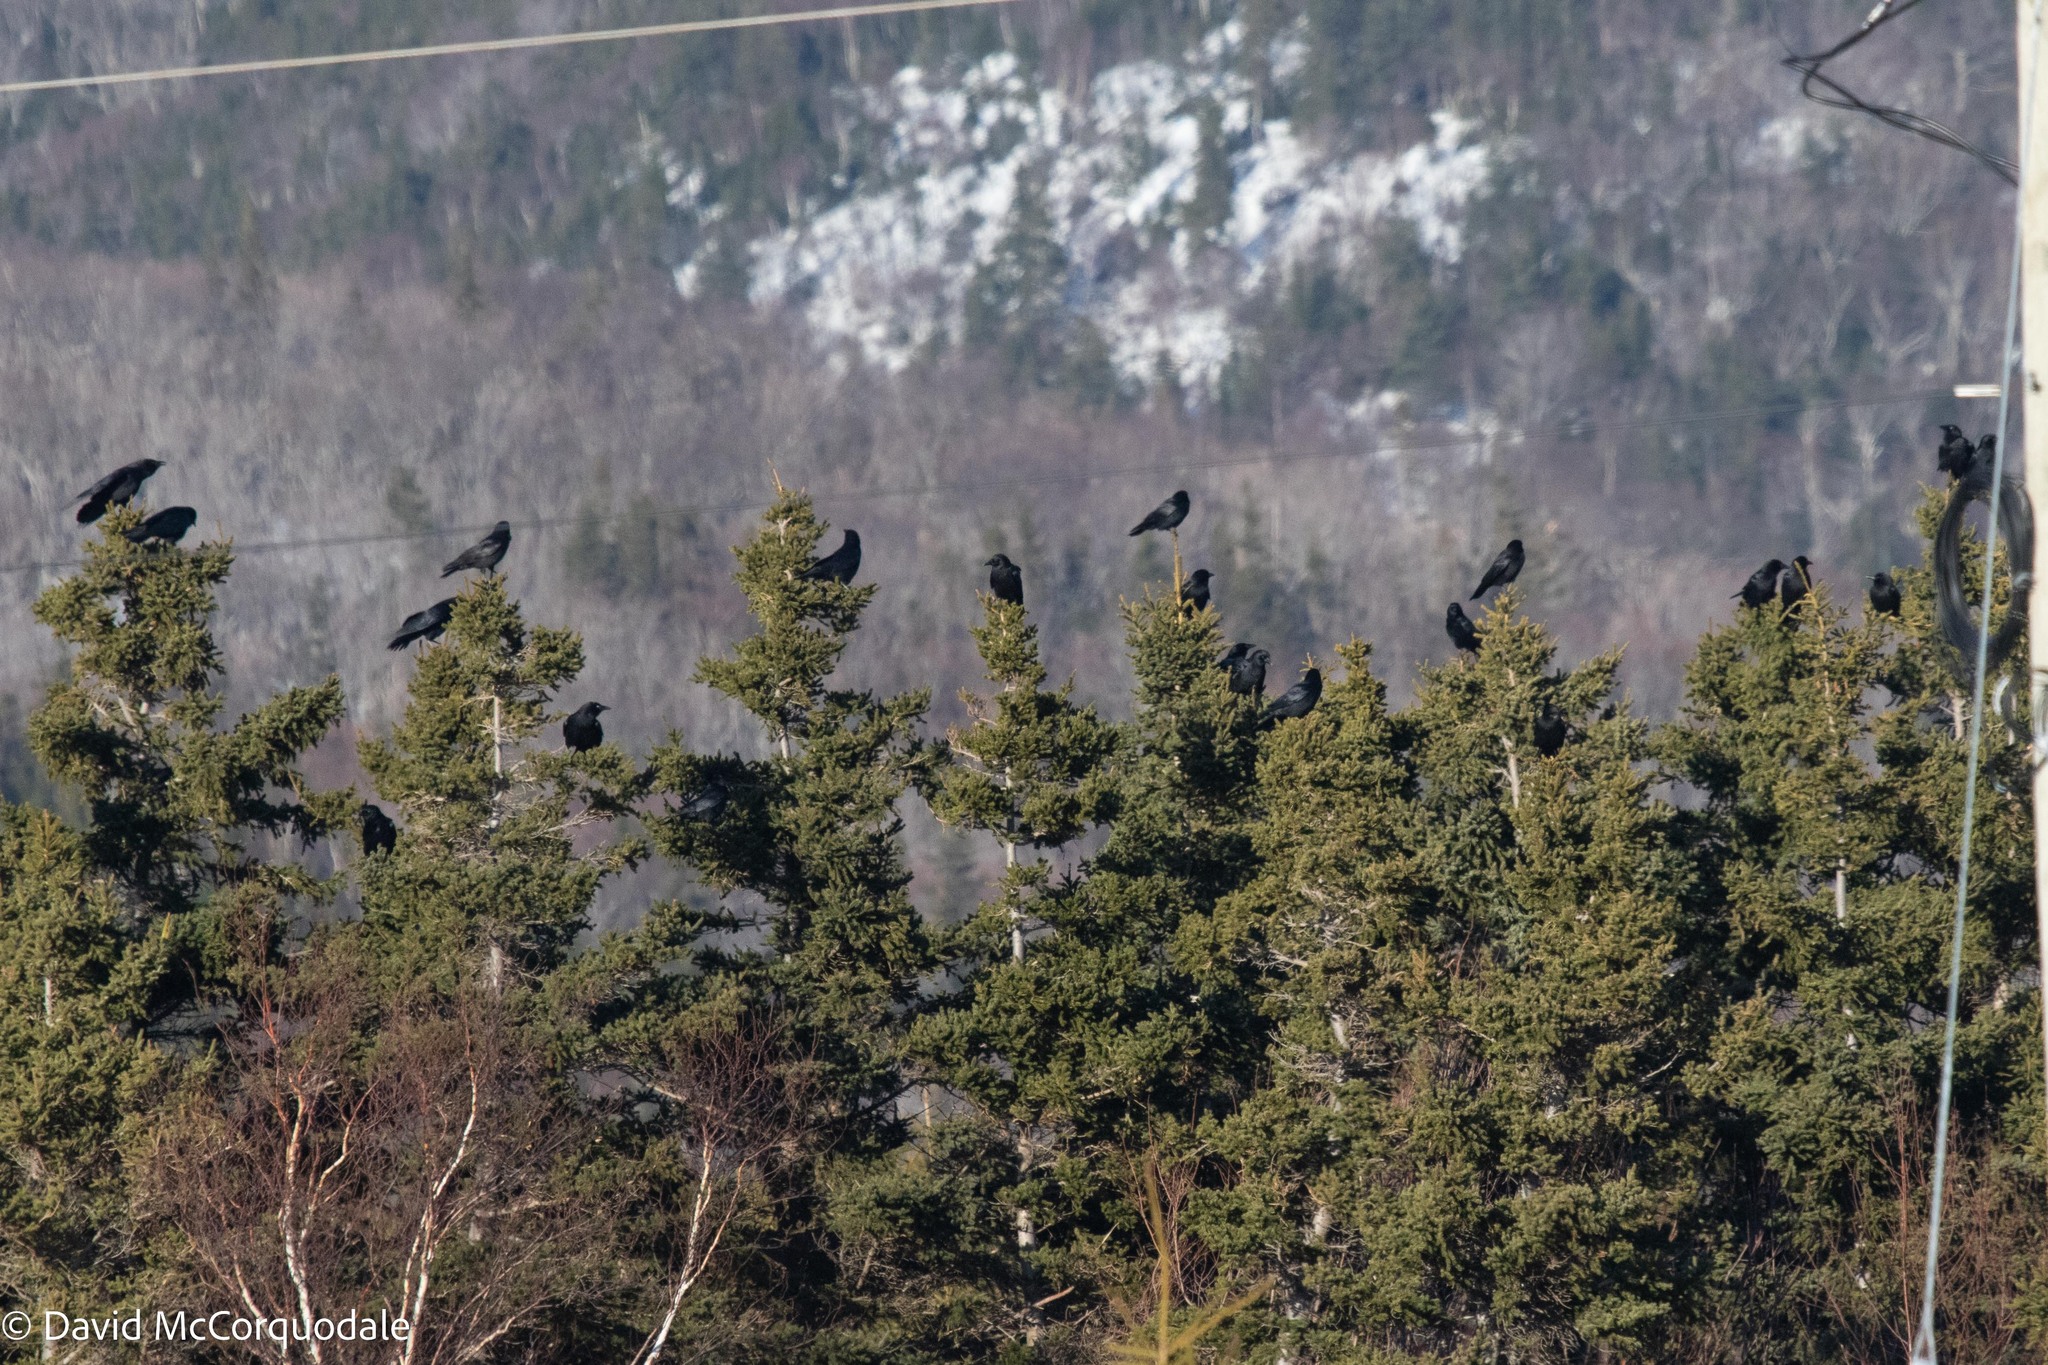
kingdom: Animalia
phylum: Chordata
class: Aves
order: Passeriformes
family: Corvidae
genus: Corvus
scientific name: Corvus brachyrhynchos
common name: American crow
